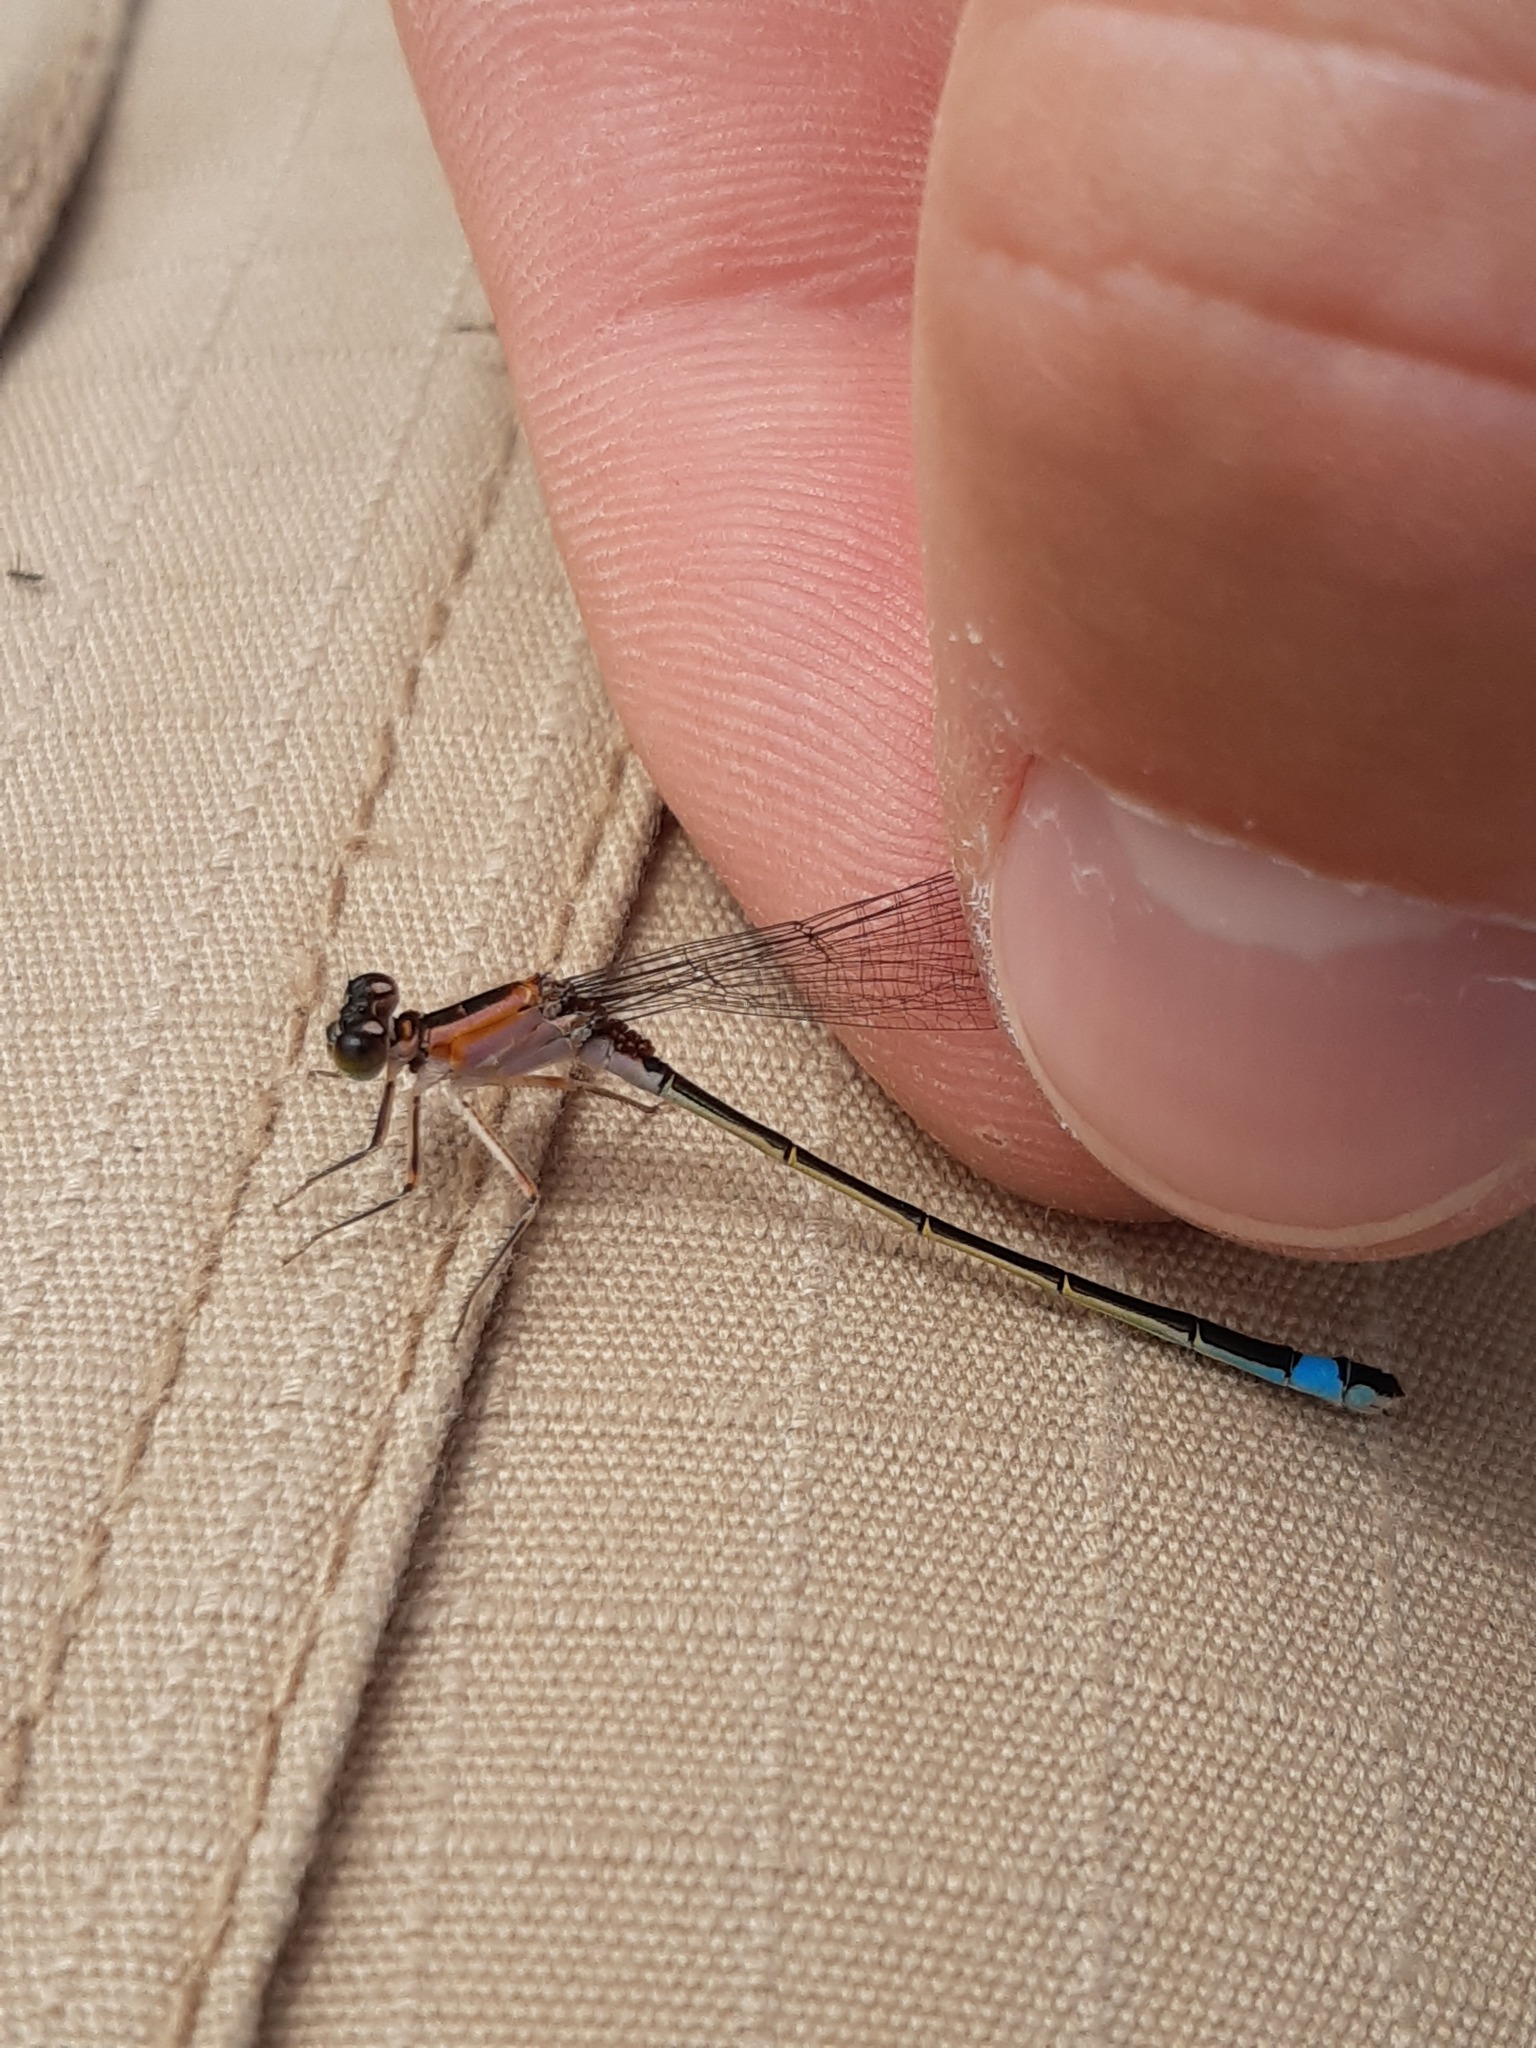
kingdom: Animalia
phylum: Arthropoda
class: Insecta
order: Odonata
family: Coenagrionidae
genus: Ischnura
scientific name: Ischnura elegans
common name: Blue-tailed damselfly
